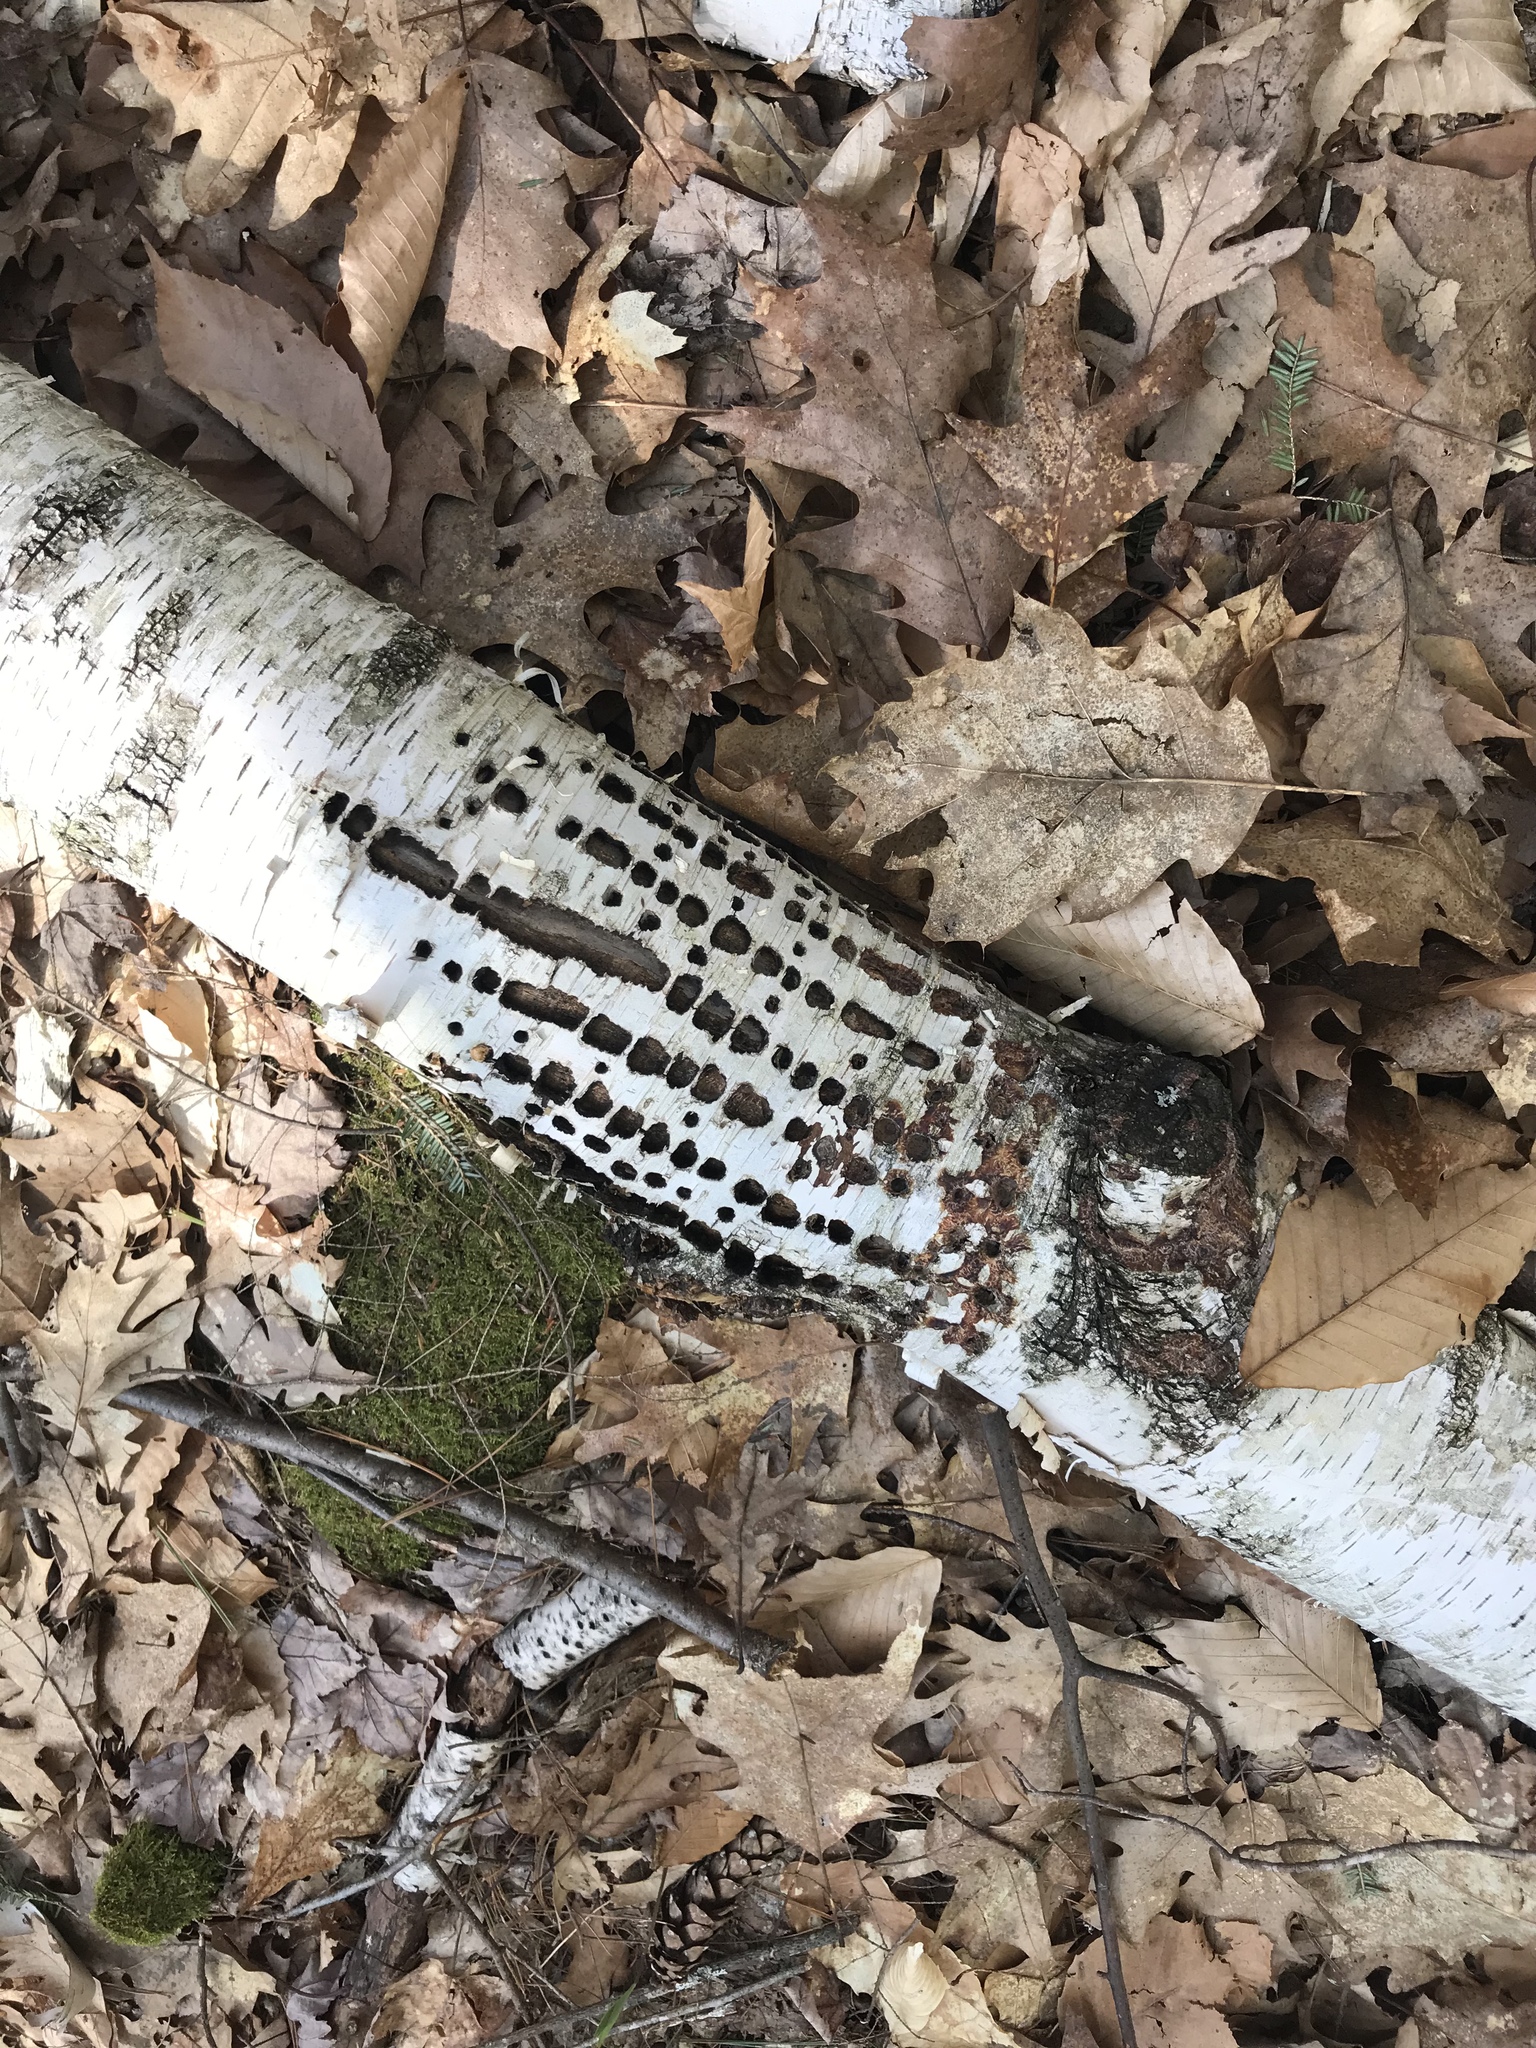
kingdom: Animalia
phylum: Chordata
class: Aves
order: Piciformes
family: Picidae
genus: Sphyrapicus
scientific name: Sphyrapicus varius
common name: Yellow-bellied sapsucker
